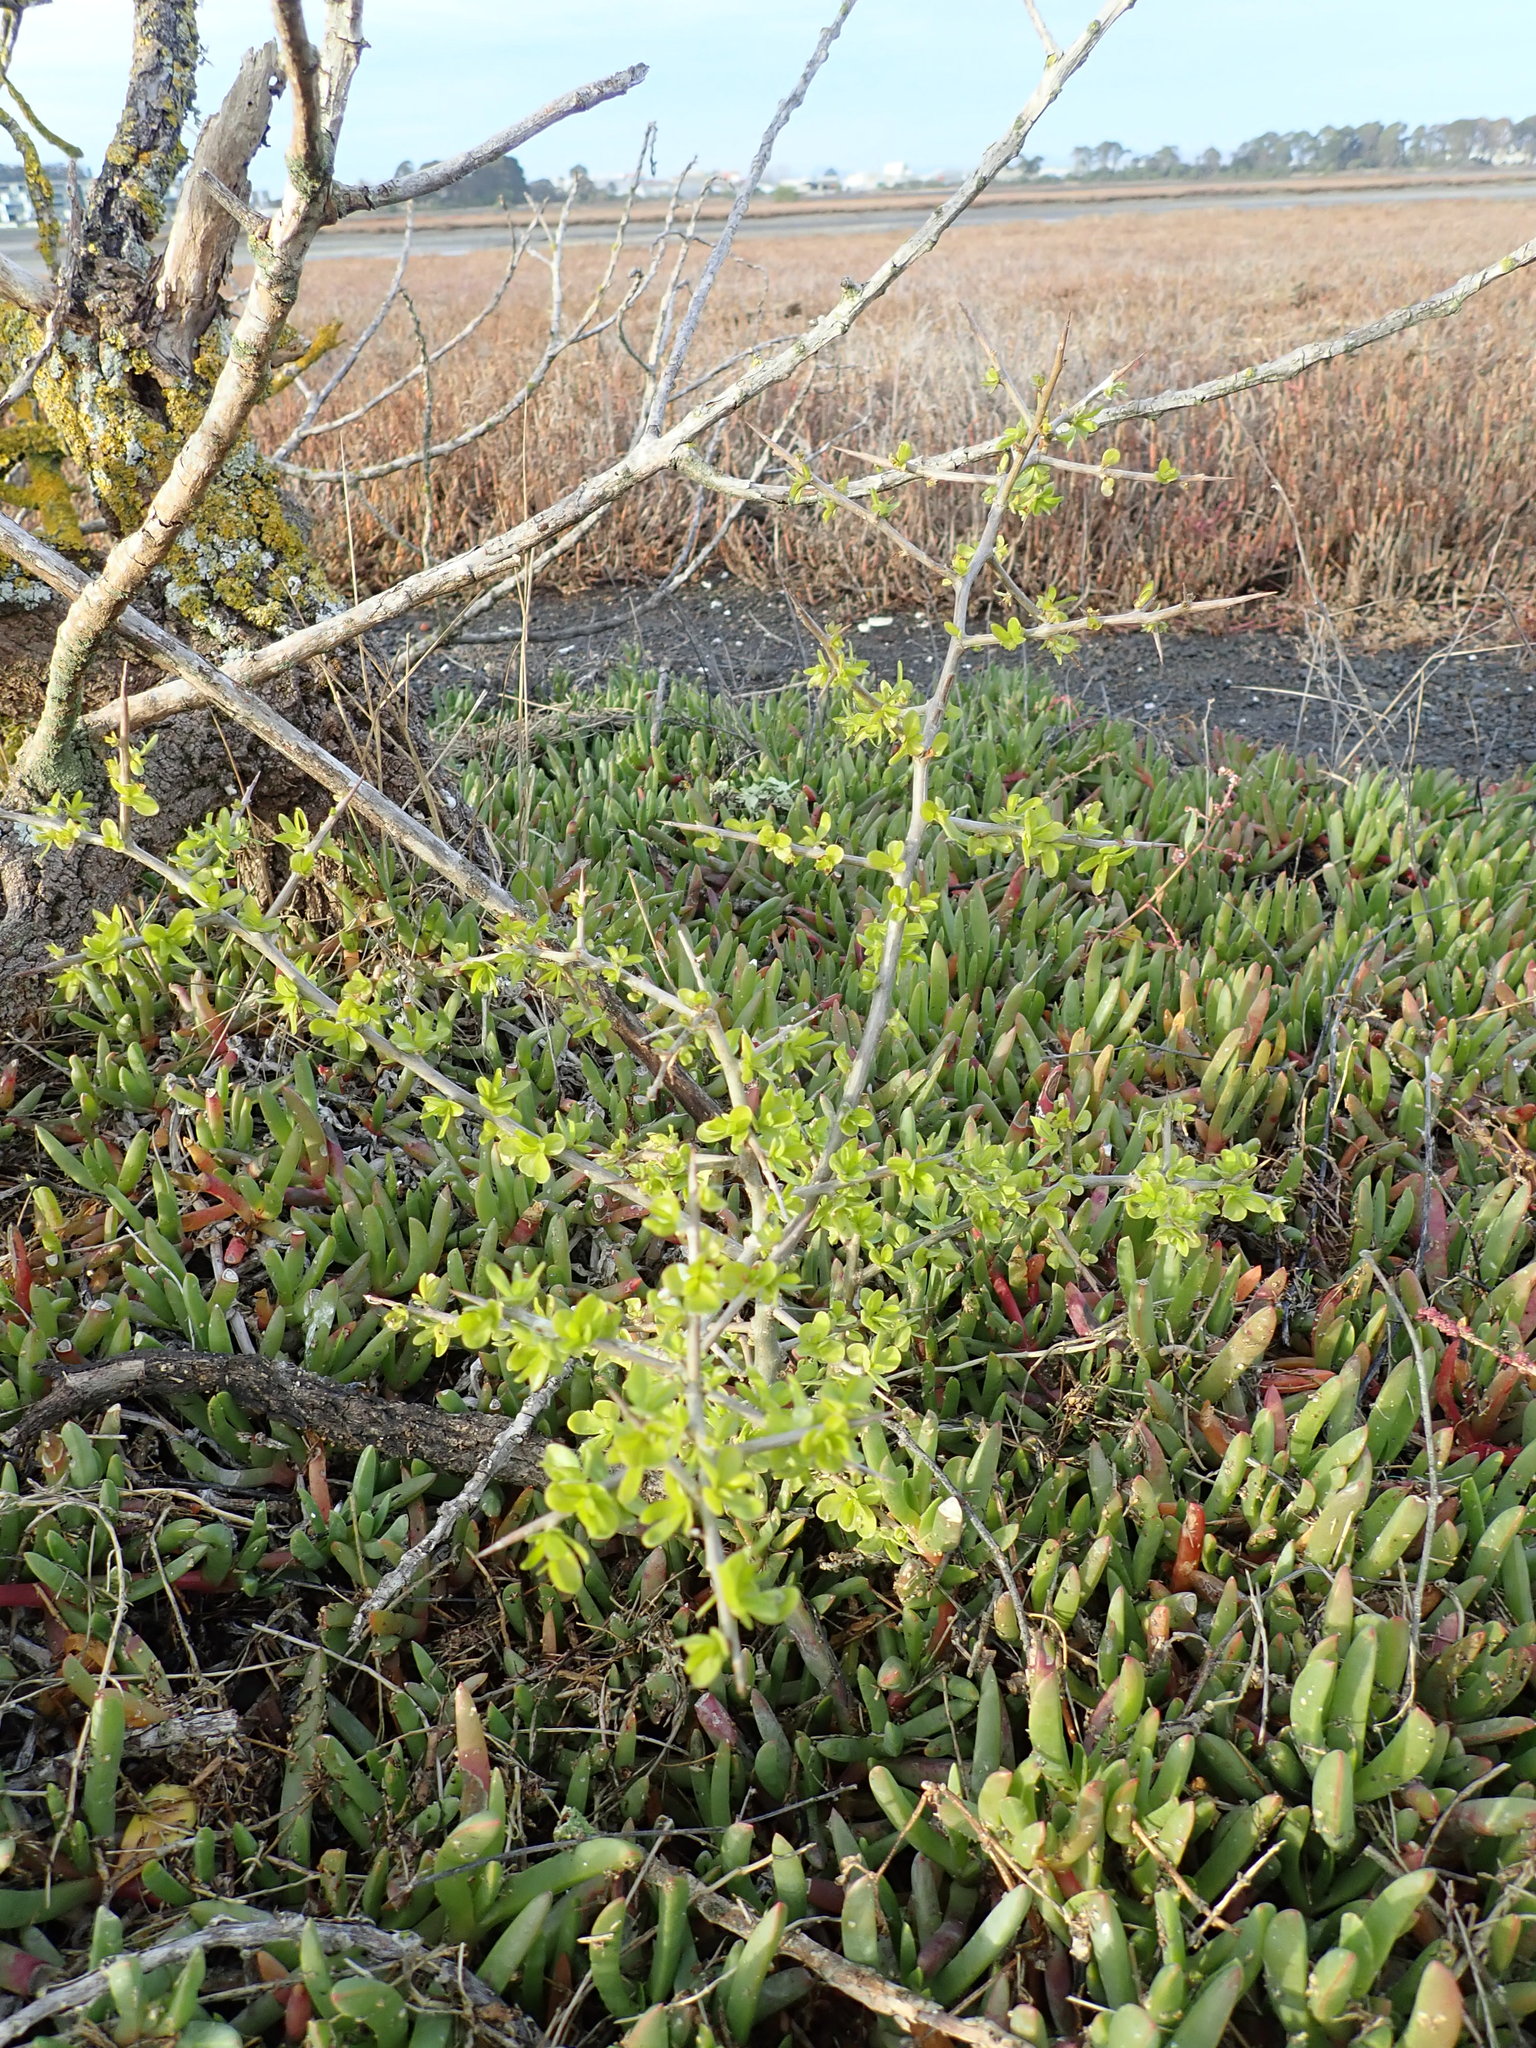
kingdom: Plantae
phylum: Tracheophyta
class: Magnoliopsida
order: Solanales
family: Solanaceae
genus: Lycium
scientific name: Lycium ferocissimum
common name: African boxthorn
